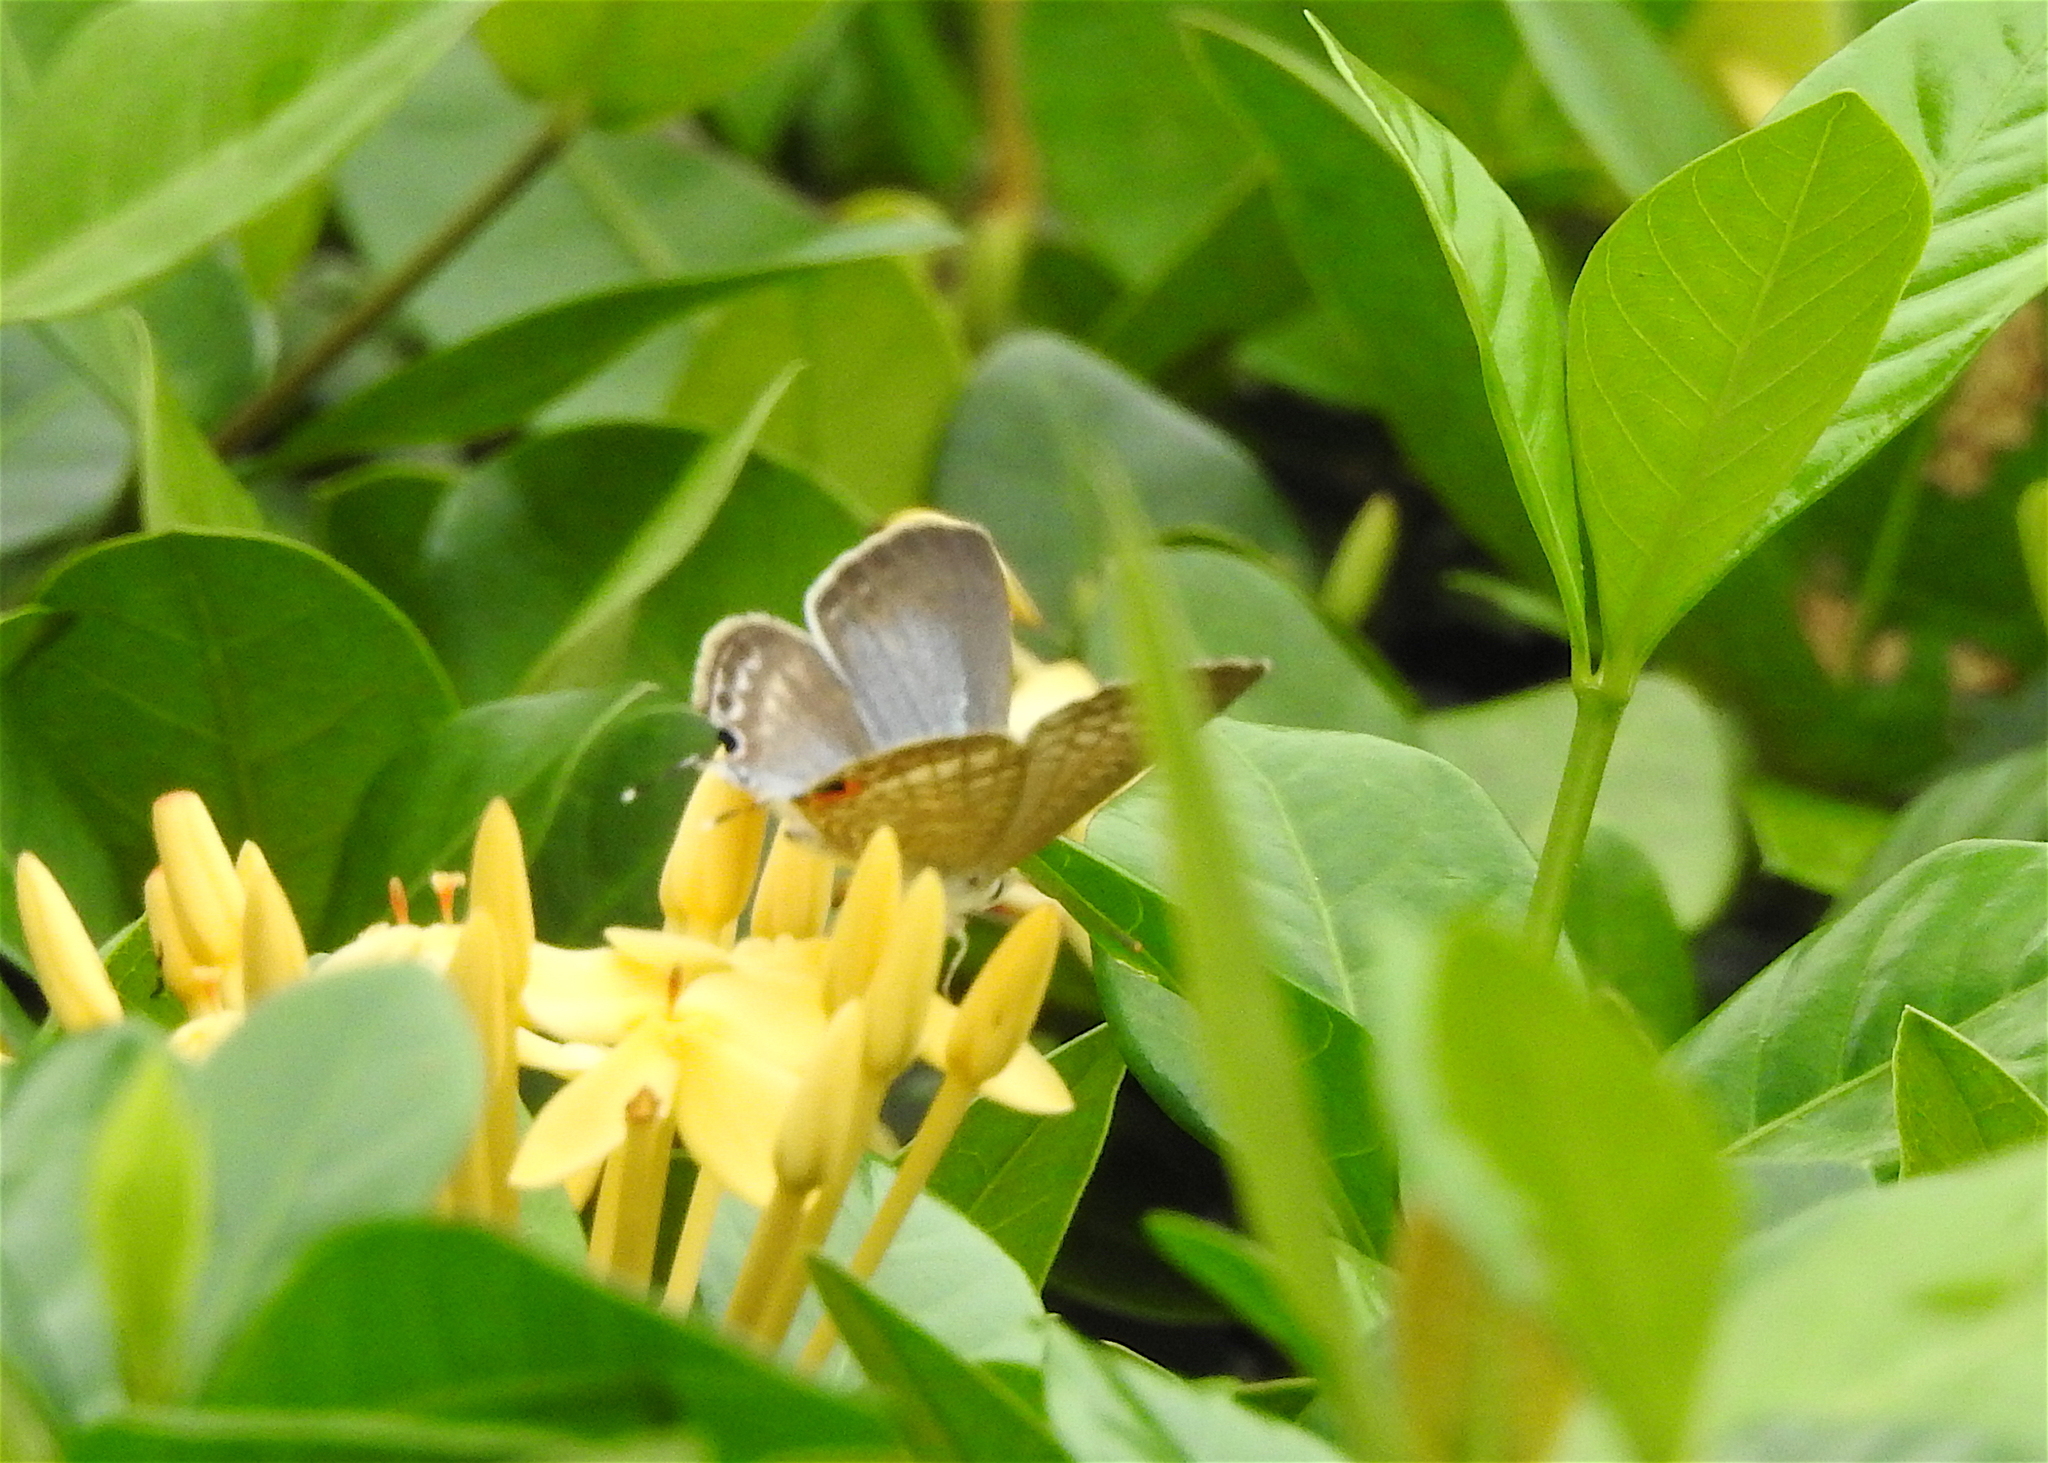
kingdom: Animalia
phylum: Arthropoda
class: Insecta
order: Lepidoptera
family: Lycaenidae
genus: Lampides
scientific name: Lampides boeticus
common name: Long-tailed blue
